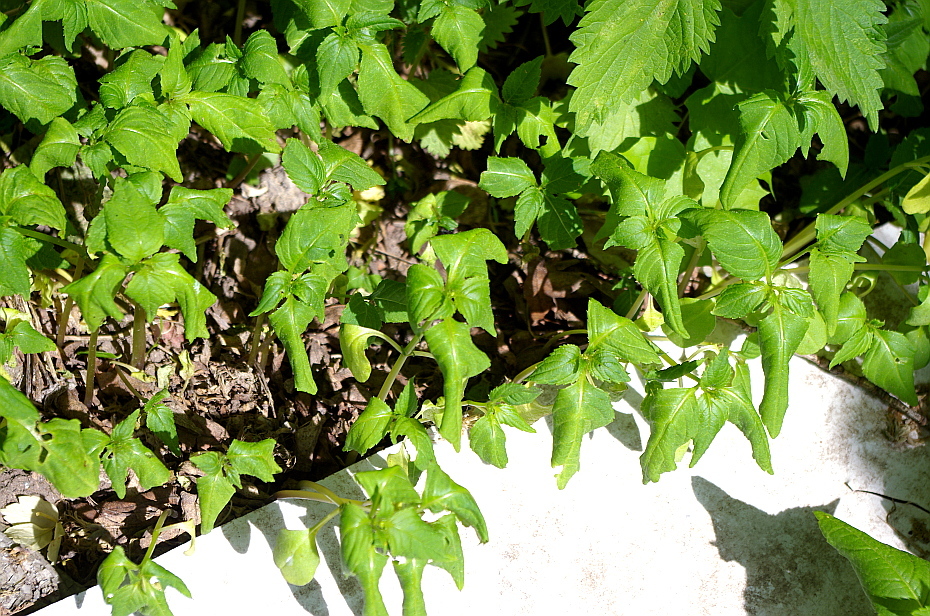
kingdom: Plantae
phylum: Tracheophyta
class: Magnoliopsida
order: Ericales
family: Balsaminaceae
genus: Impatiens
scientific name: Impatiens parviflora
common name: Small balsam
